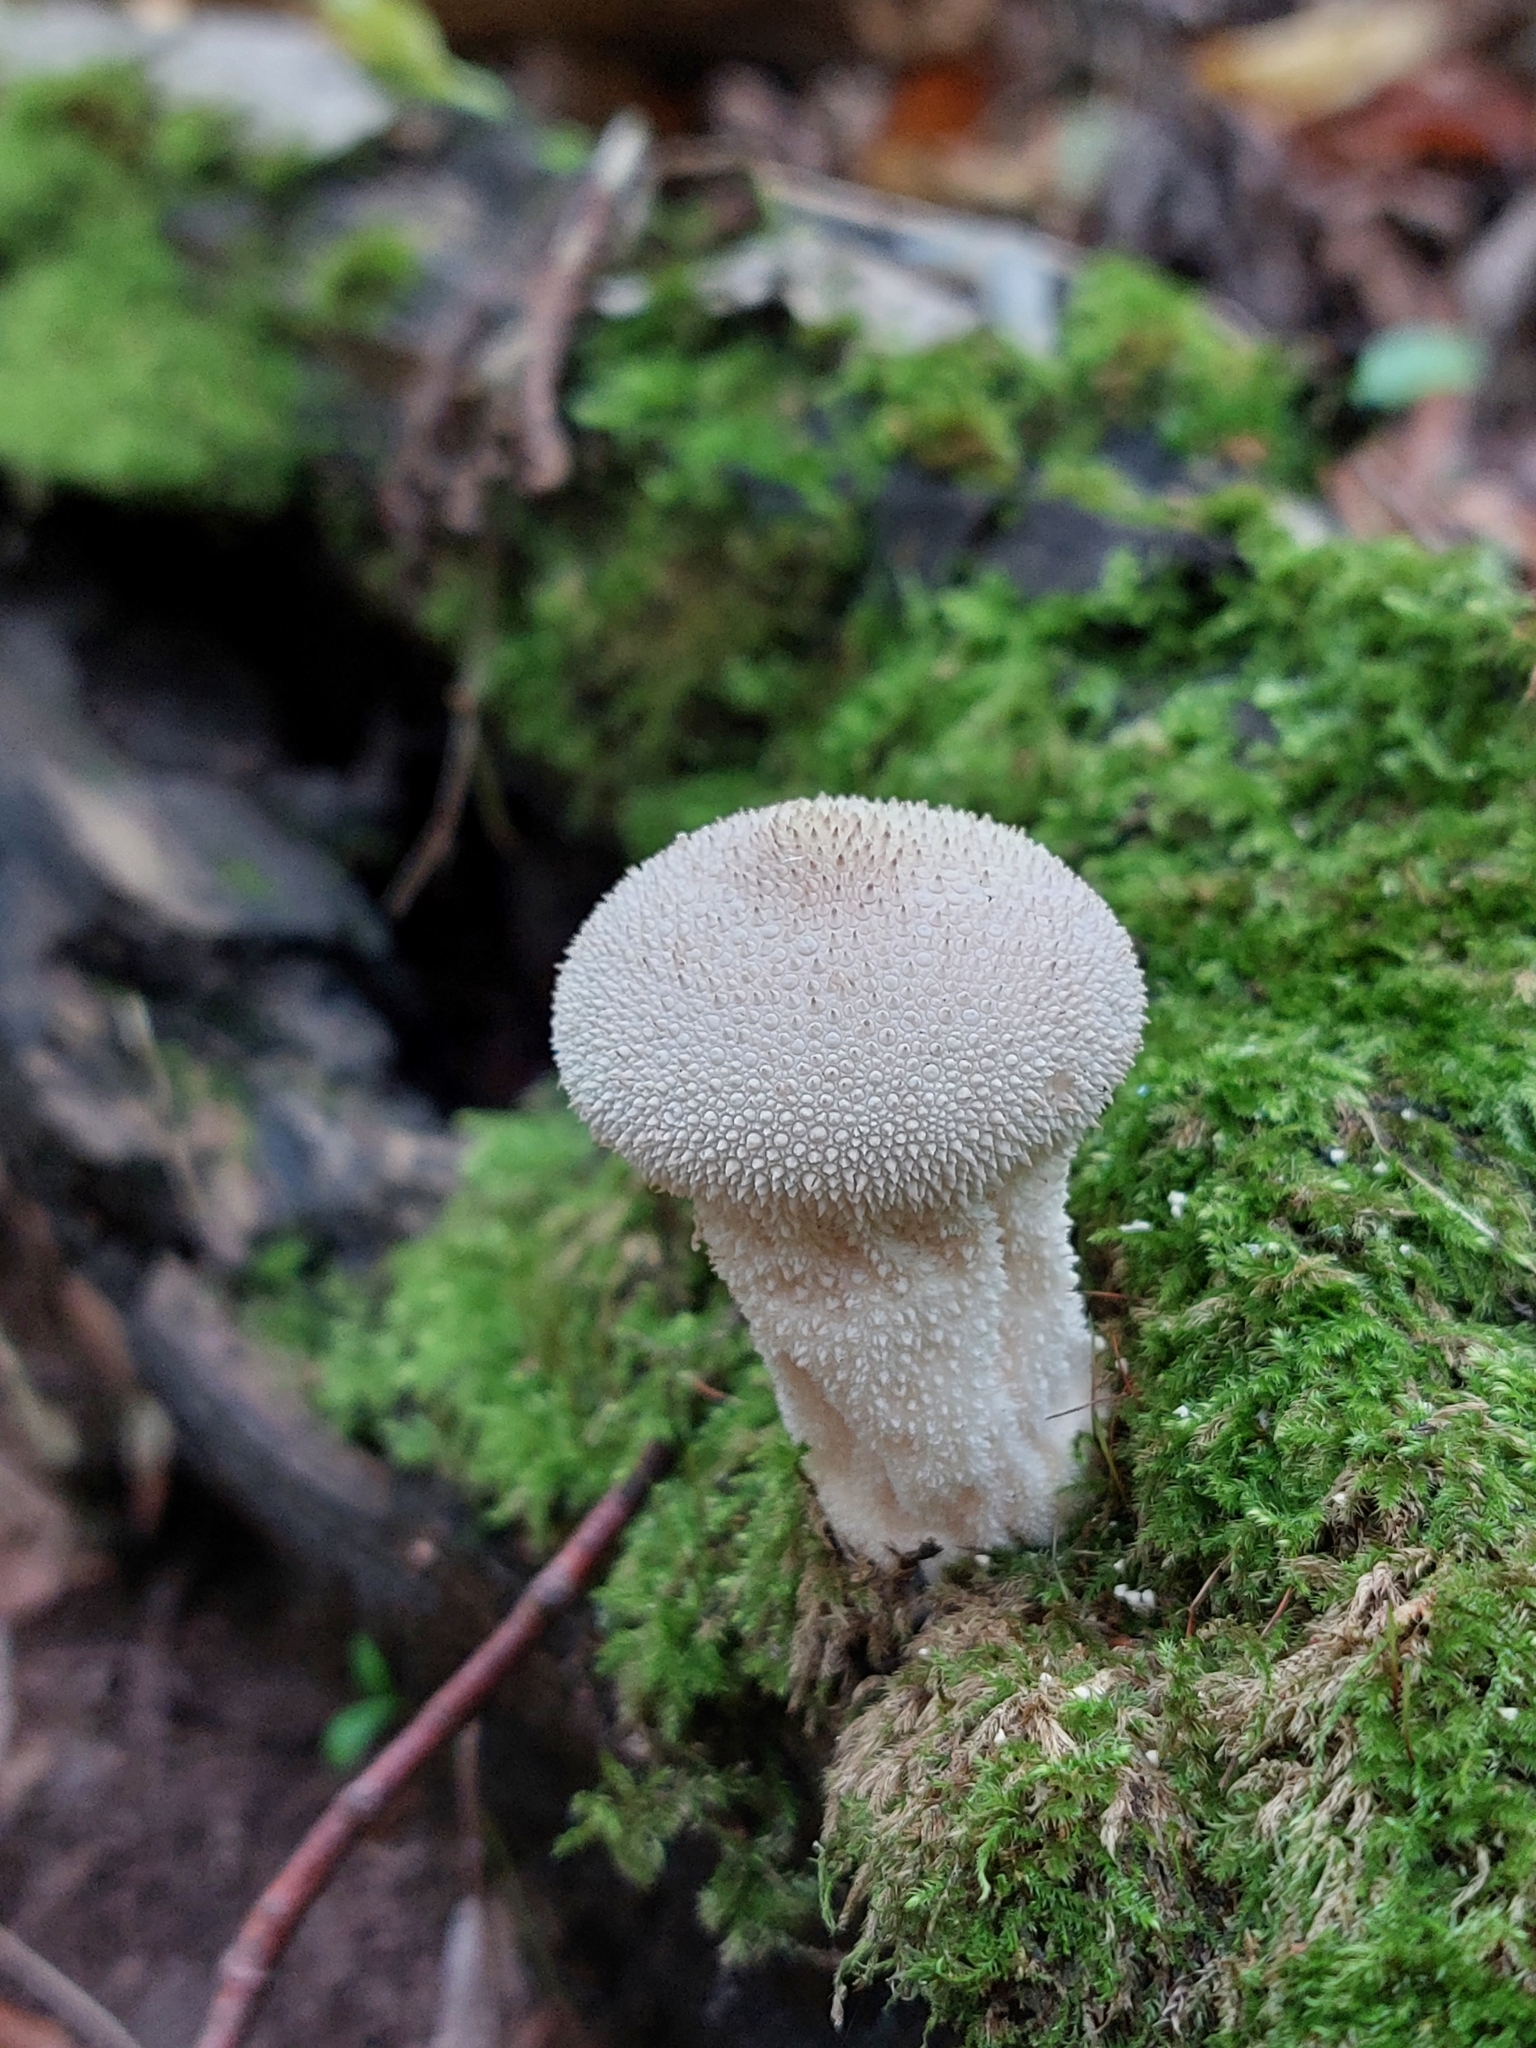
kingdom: Fungi
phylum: Basidiomycota
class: Agaricomycetes
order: Agaricales
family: Lycoperdaceae
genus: Lycoperdon
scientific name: Lycoperdon perlatum
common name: Common puffball
